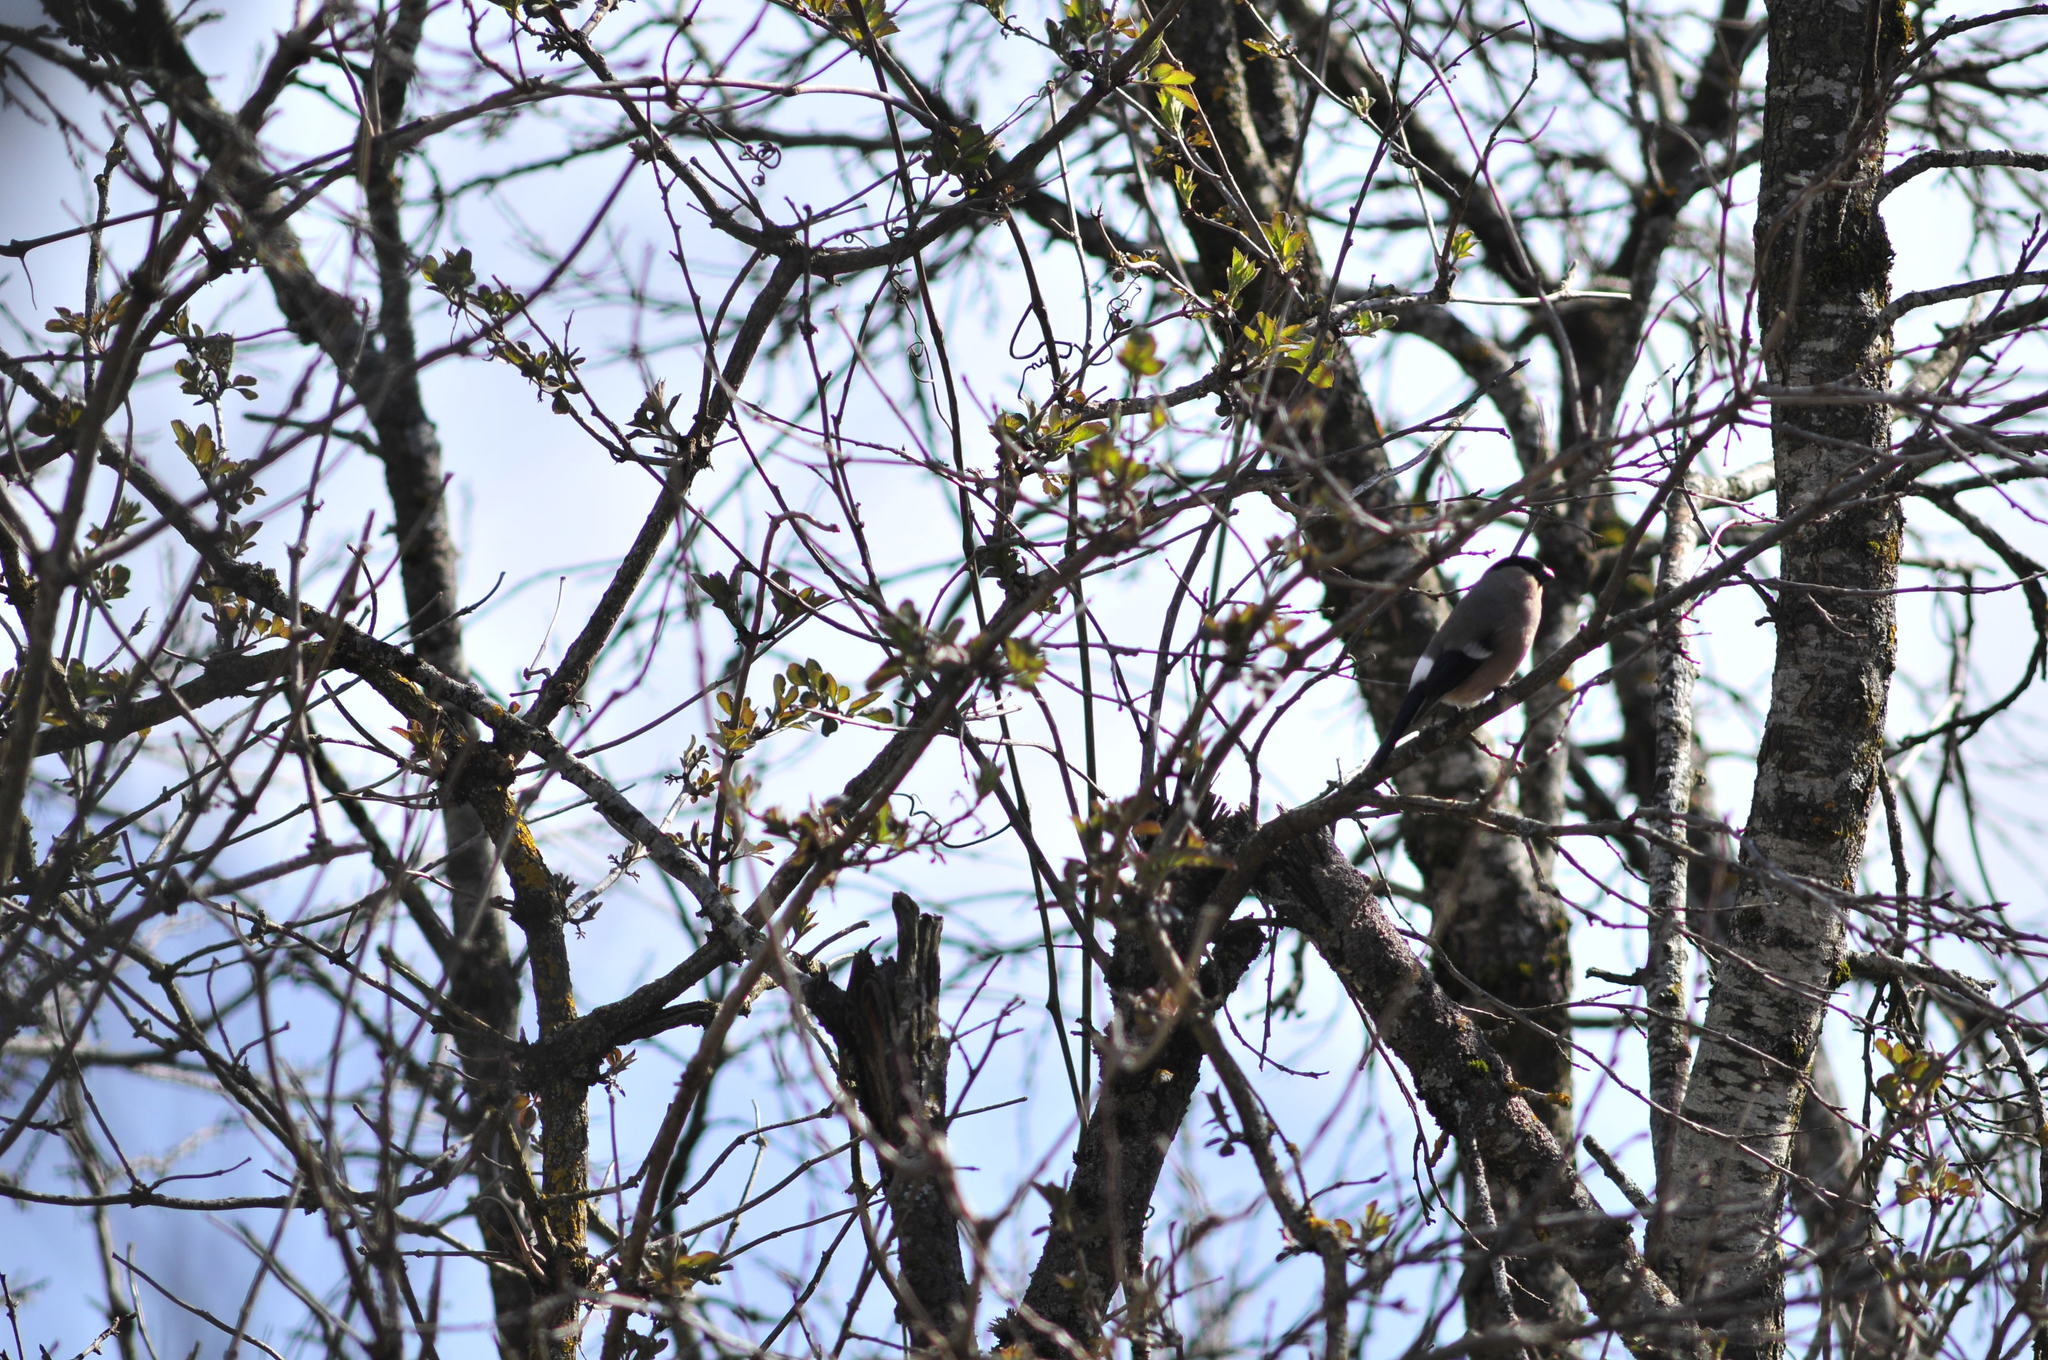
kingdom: Animalia
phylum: Chordata
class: Aves
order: Passeriformes
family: Fringillidae
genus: Pyrrhula
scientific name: Pyrrhula pyrrhula
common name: Eurasian bullfinch
